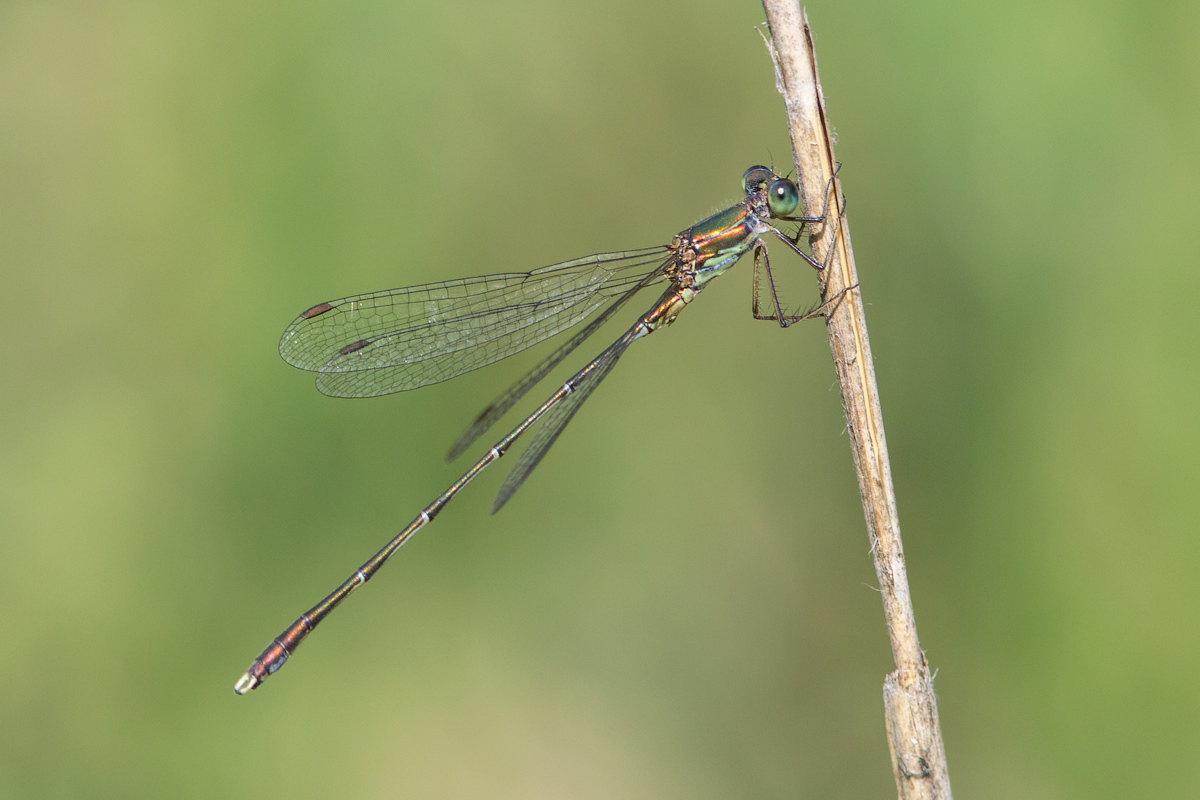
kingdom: Animalia
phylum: Arthropoda
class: Insecta
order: Odonata
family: Lestidae
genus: Chalcolestes
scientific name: Chalcolestes parvidens
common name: Eastern willow spreadwing
